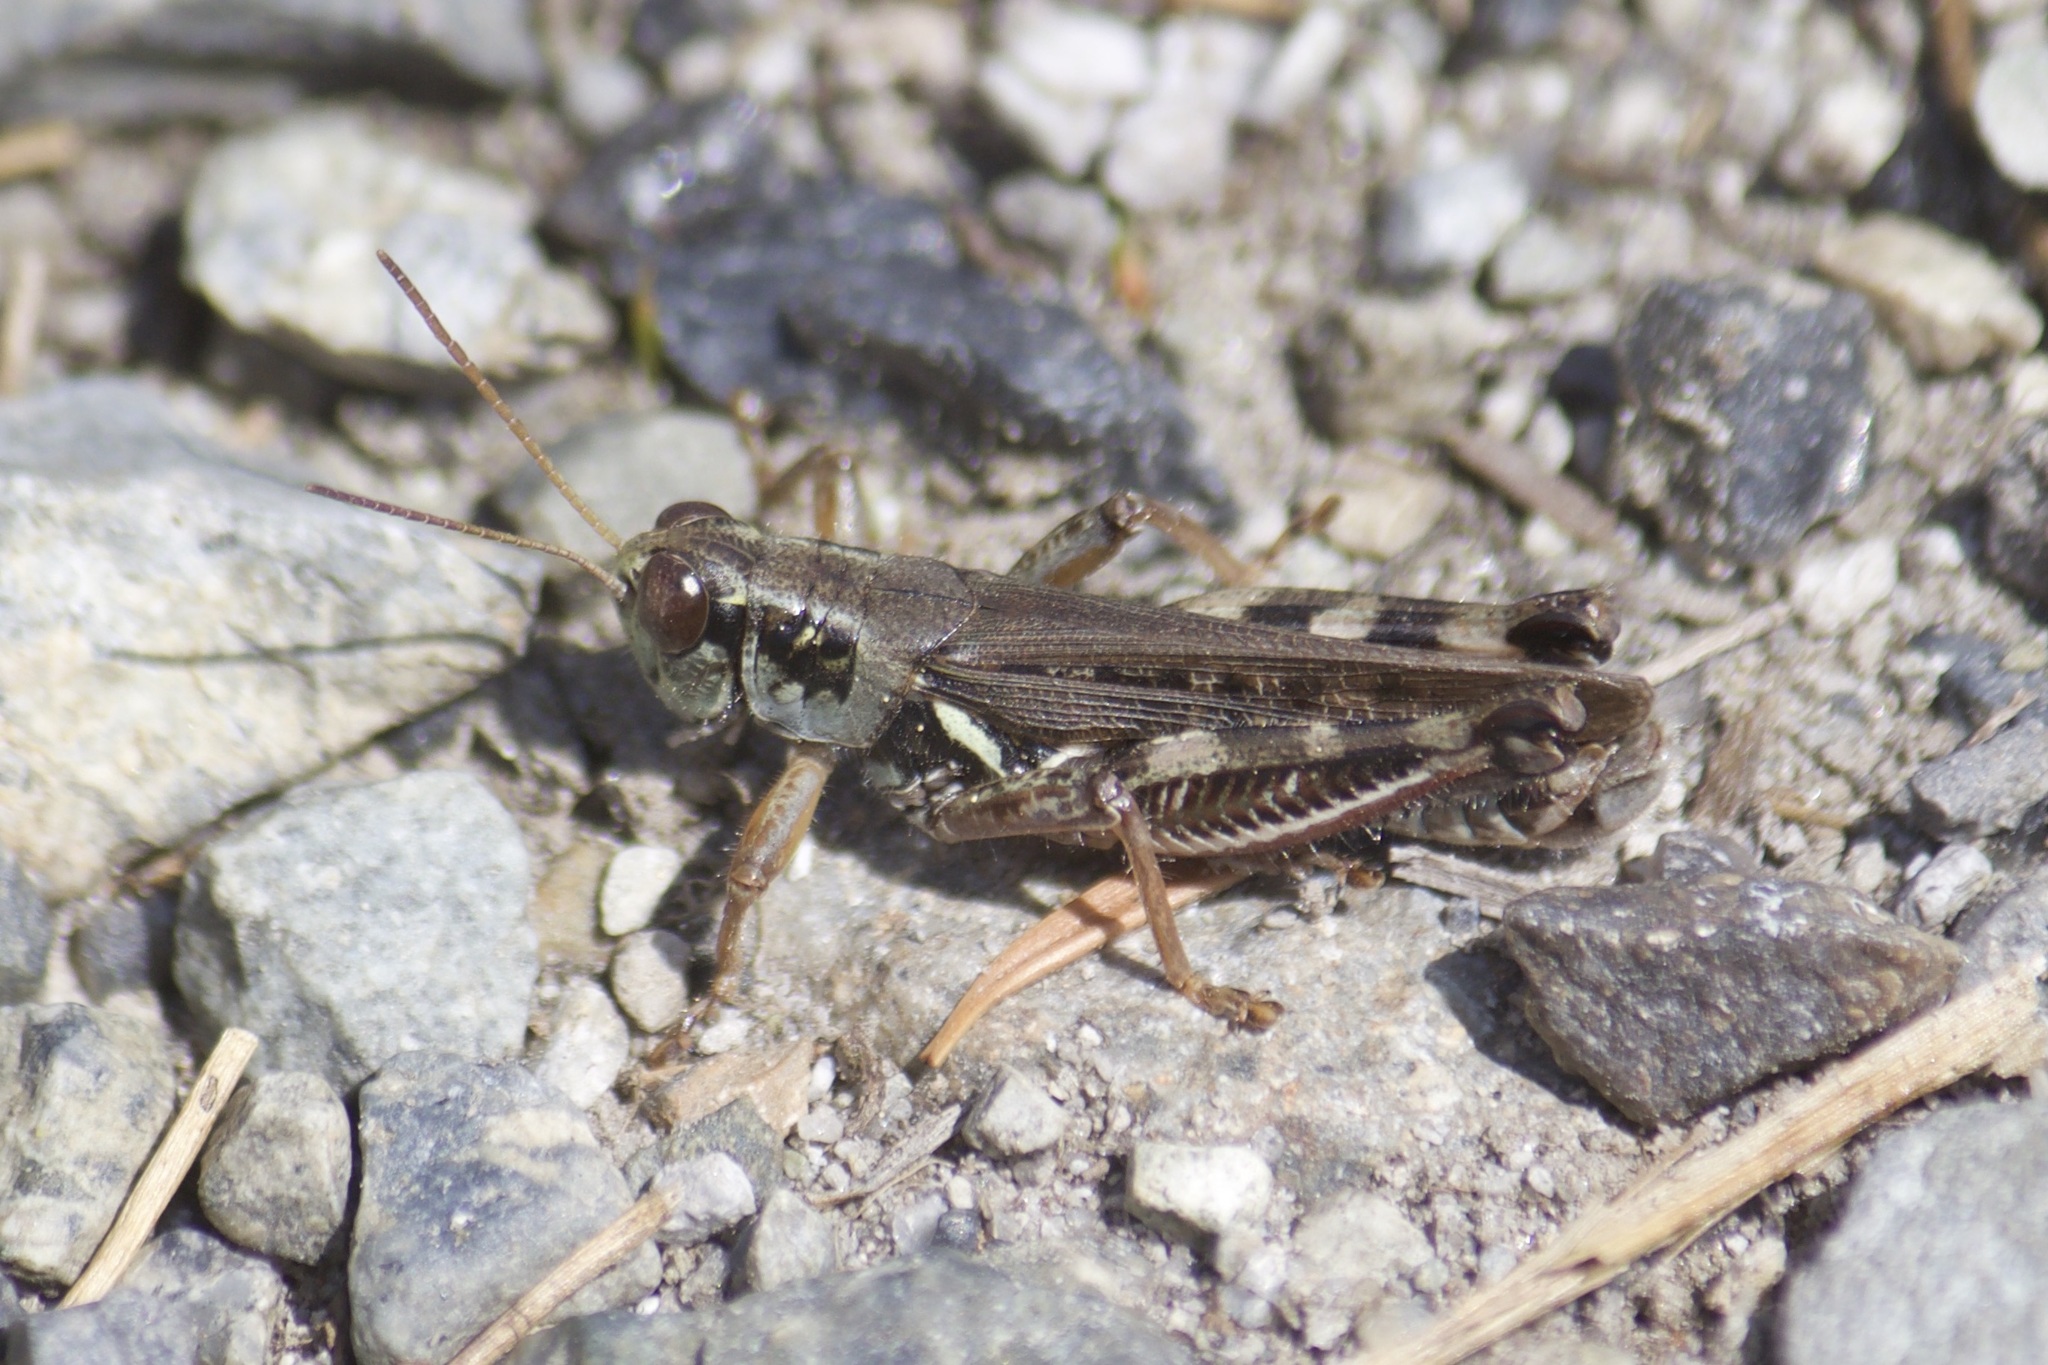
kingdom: Animalia
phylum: Arthropoda
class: Insecta
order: Orthoptera
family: Acrididae
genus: Melanoplus
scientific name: Melanoplus sanguinipes
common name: Migratory grasshopper
